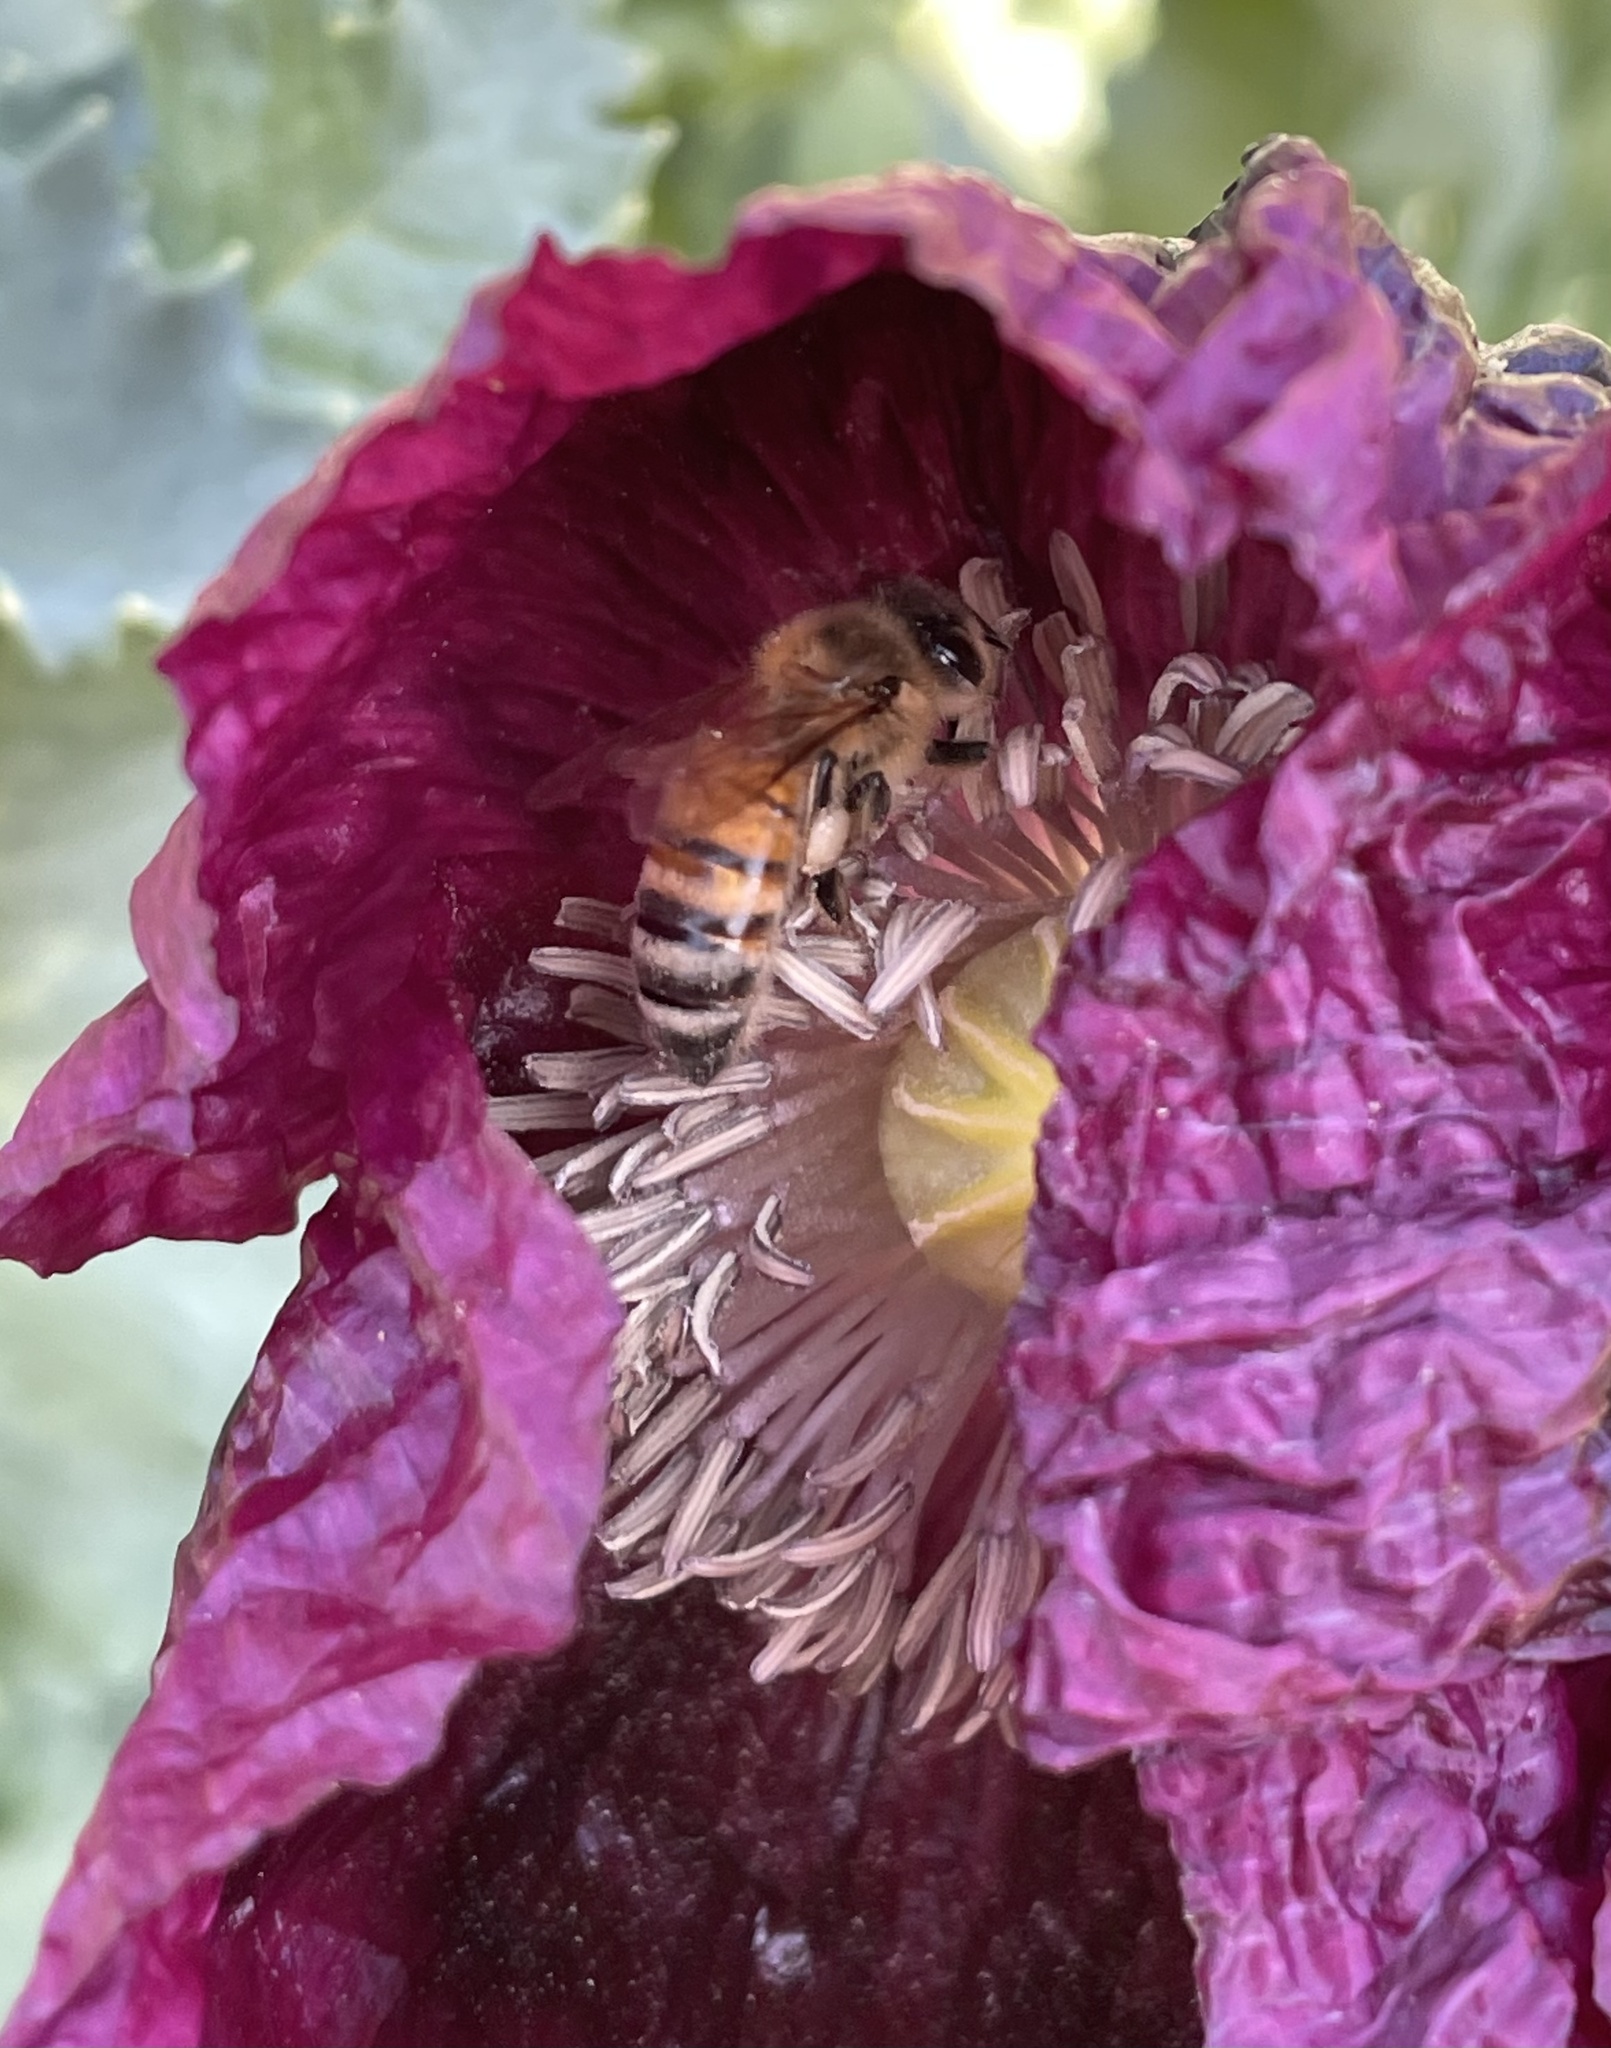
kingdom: Animalia
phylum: Arthropoda
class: Insecta
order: Hymenoptera
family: Apidae
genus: Apis
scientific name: Apis mellifera
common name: Honey bee
